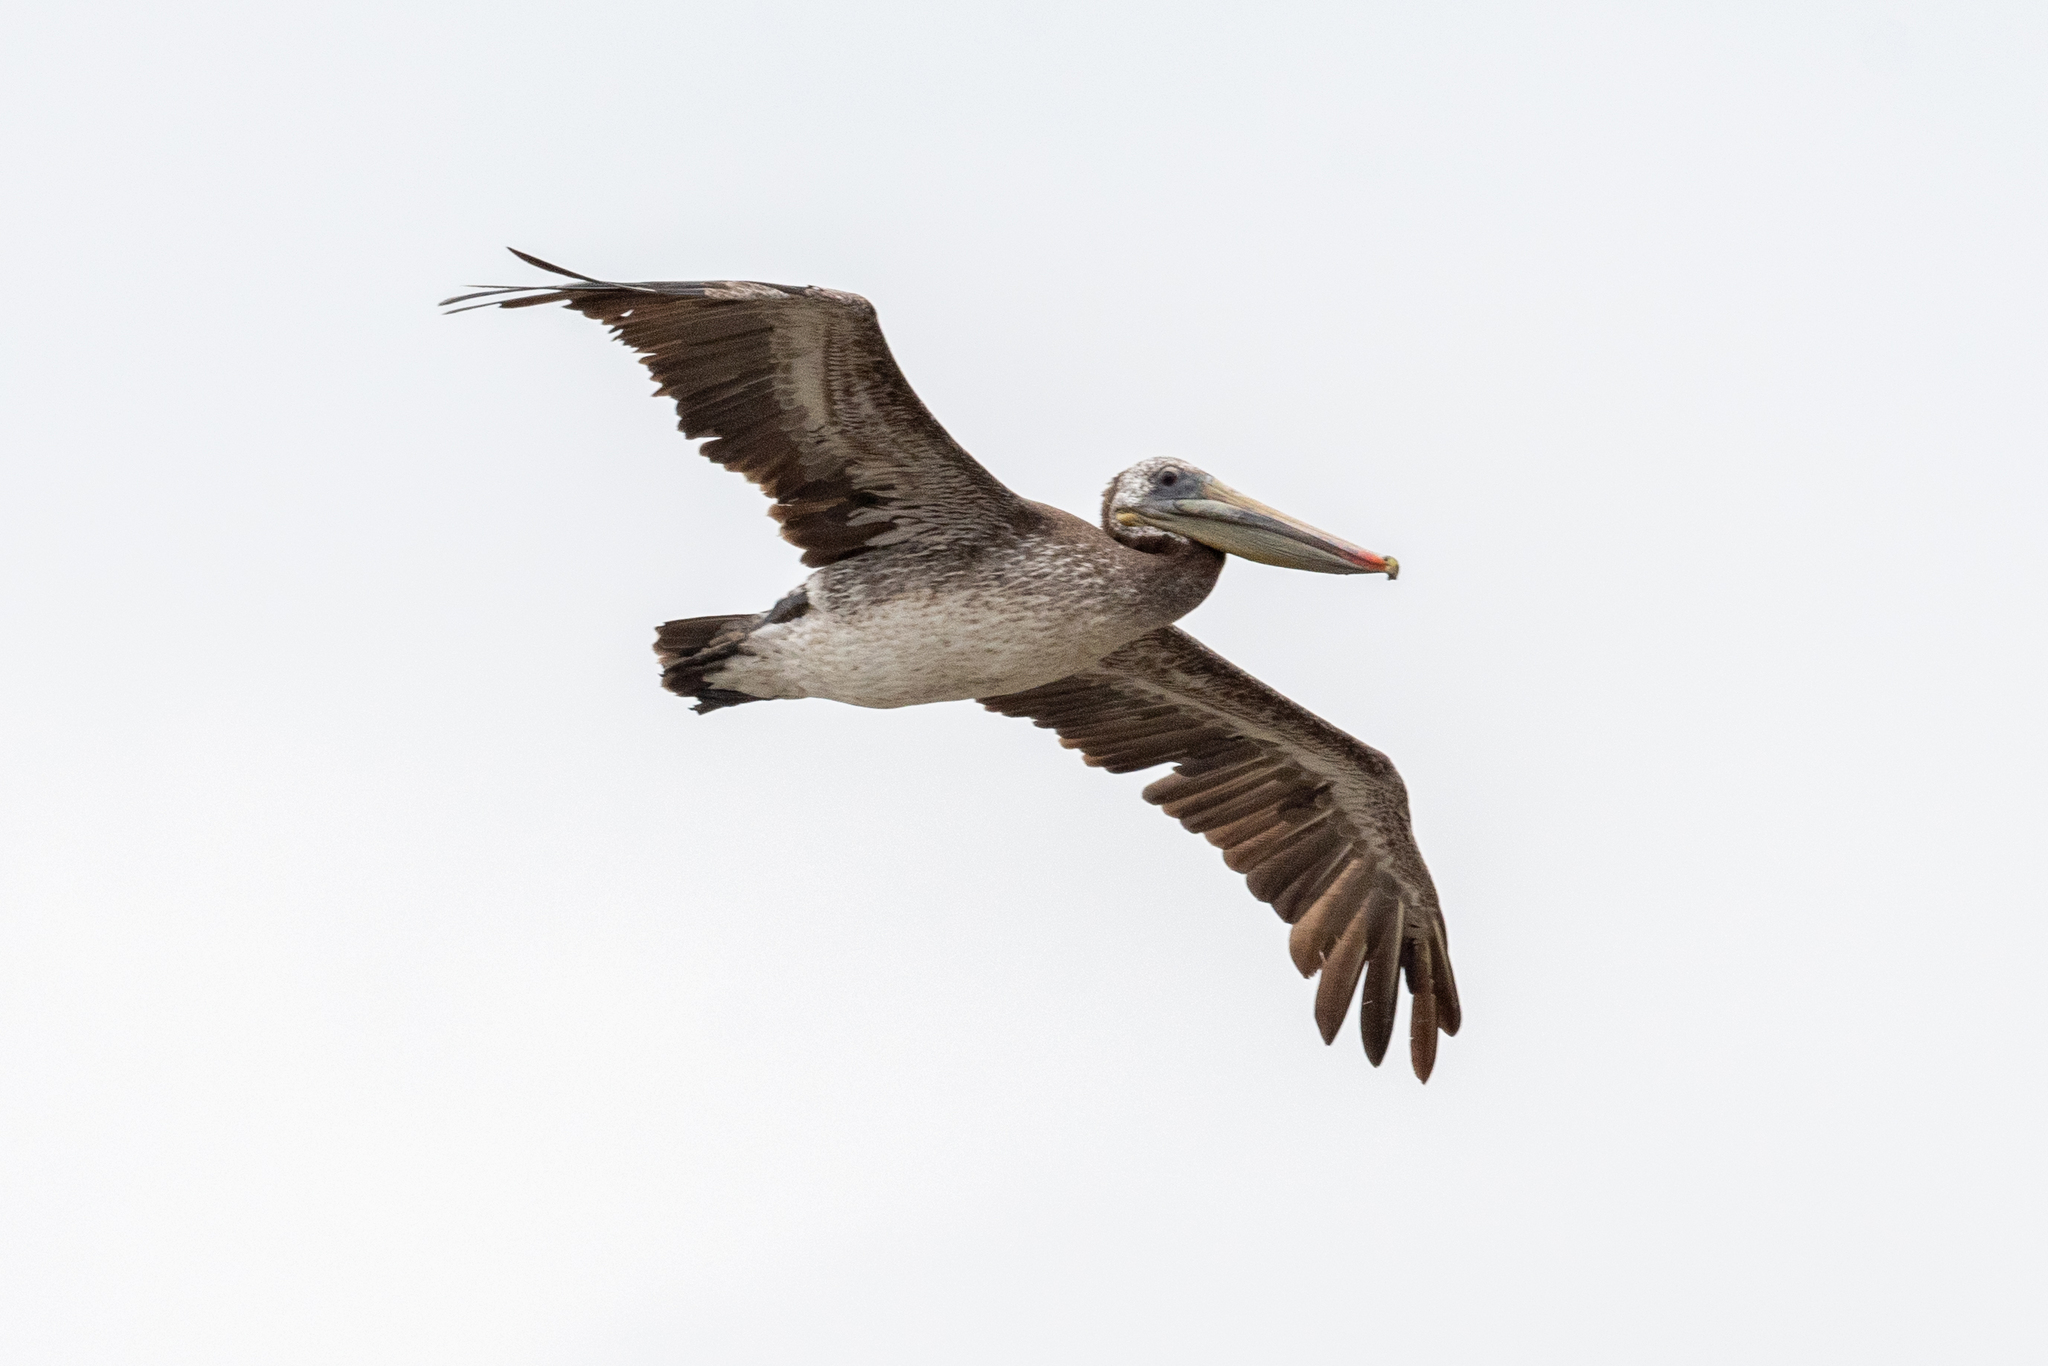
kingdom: Animalia
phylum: Chordata
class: Aves
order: Pelecaniformes
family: Pelecanidae
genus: Pelecanus
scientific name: Pelecanus occidentalis
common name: Brown pelican
